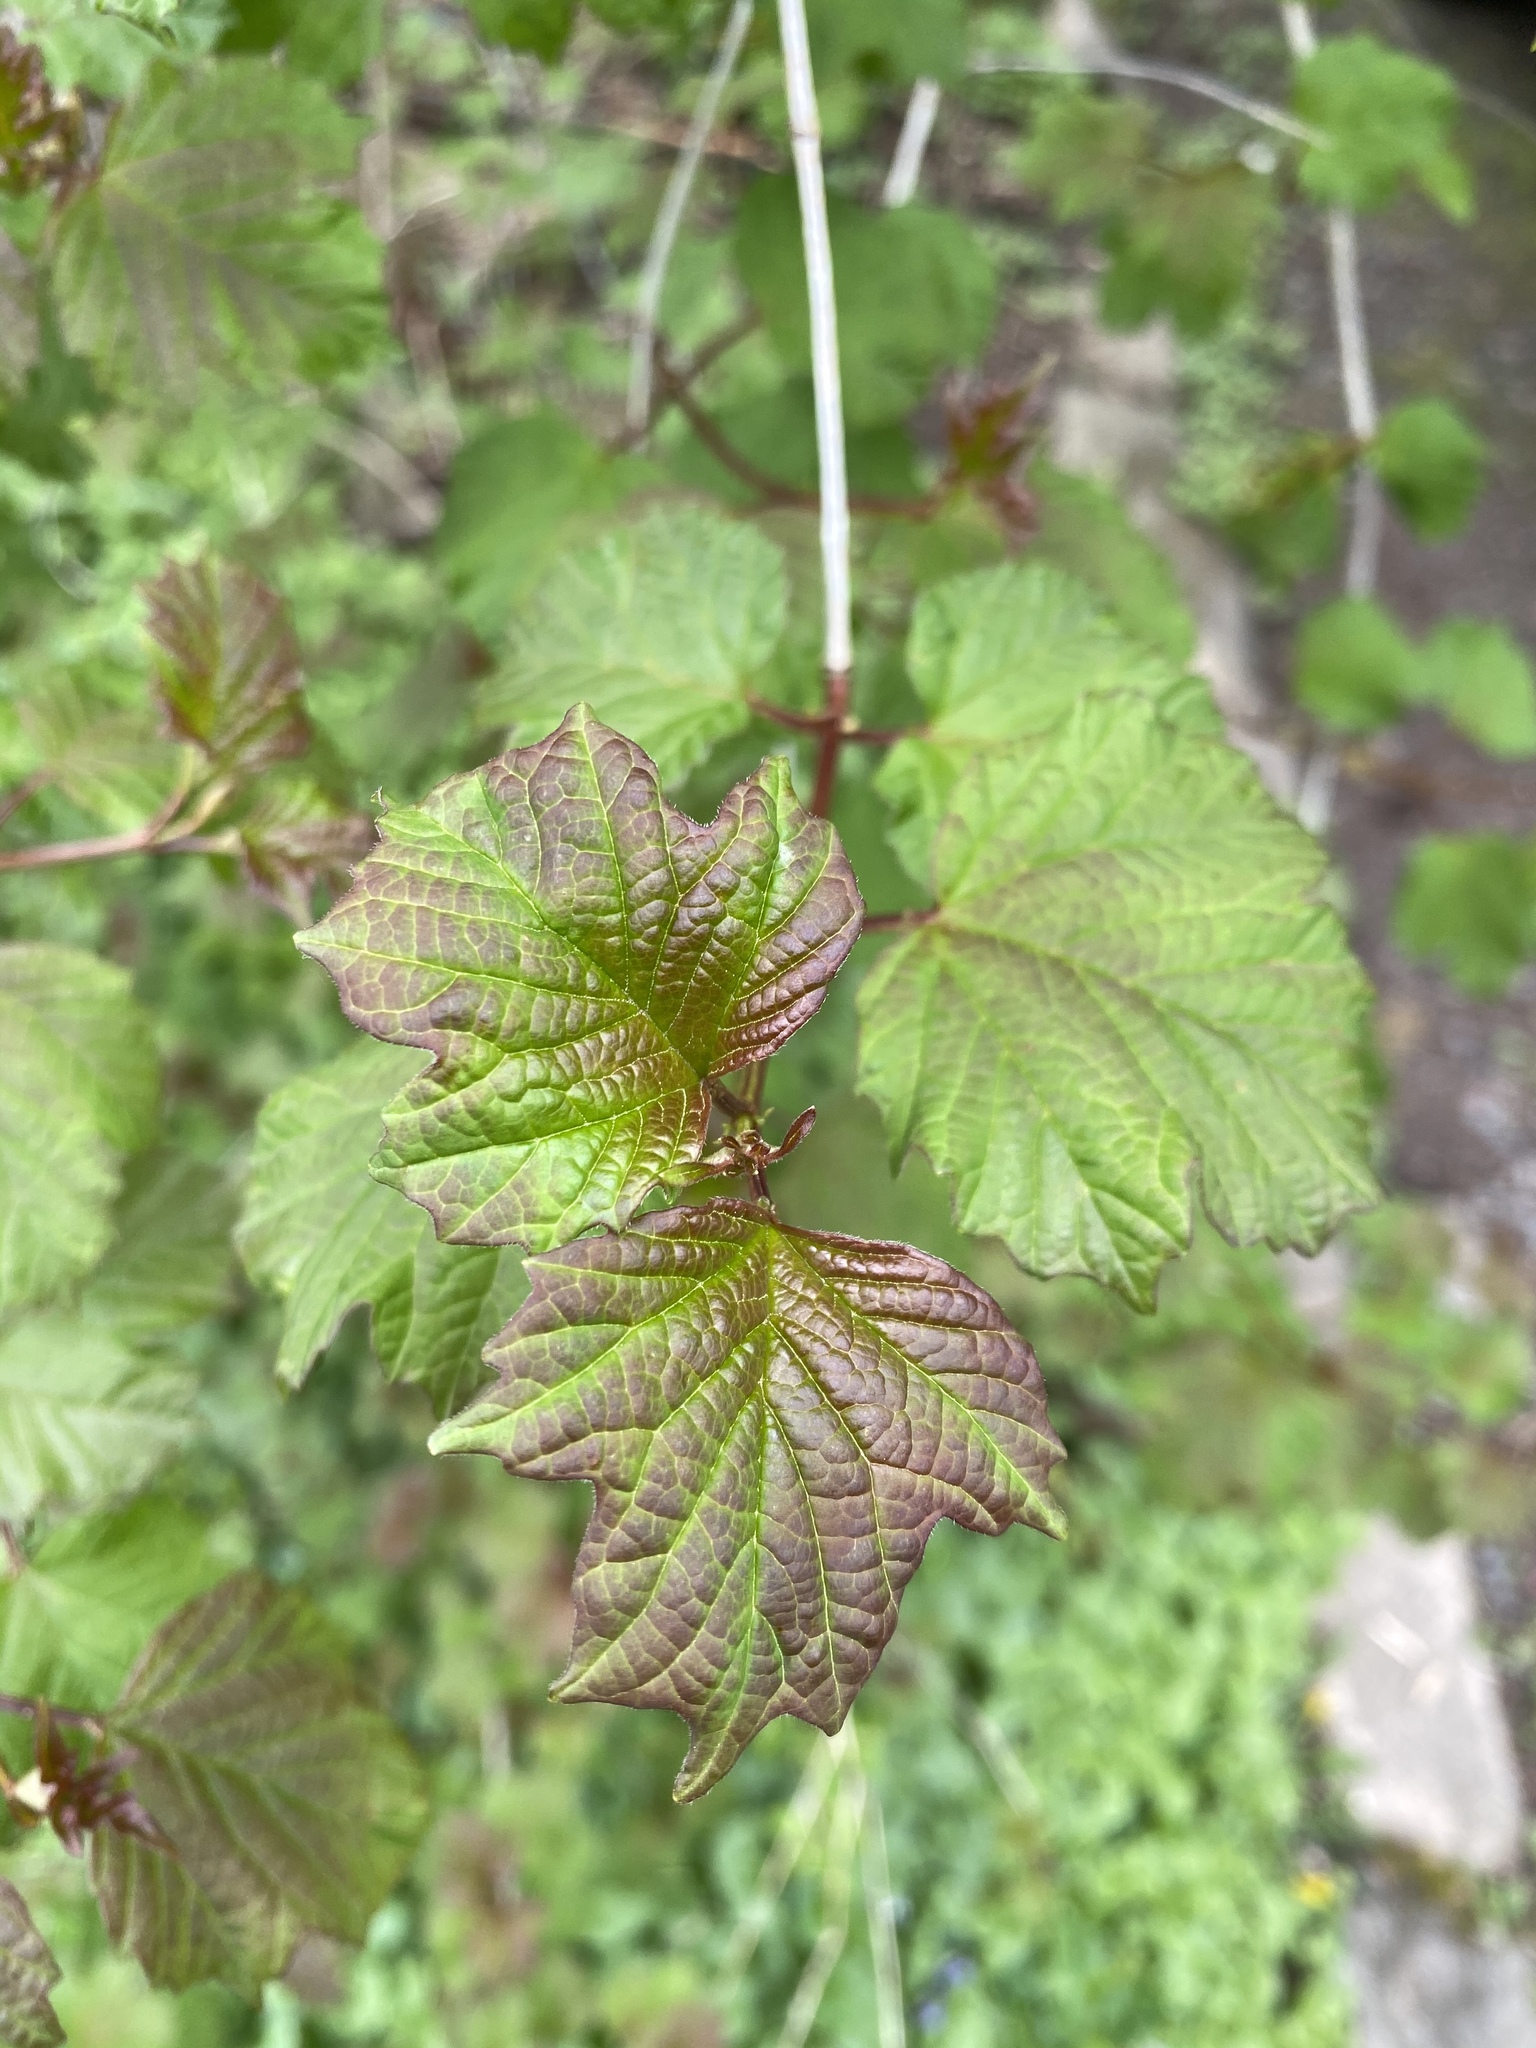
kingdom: Plantae
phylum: Tracheophyta
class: Magnoliopsida
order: Dipsacales
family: Viburnaceae
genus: Viburnum
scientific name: Viburnum acerifolium
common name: Dockmackie
